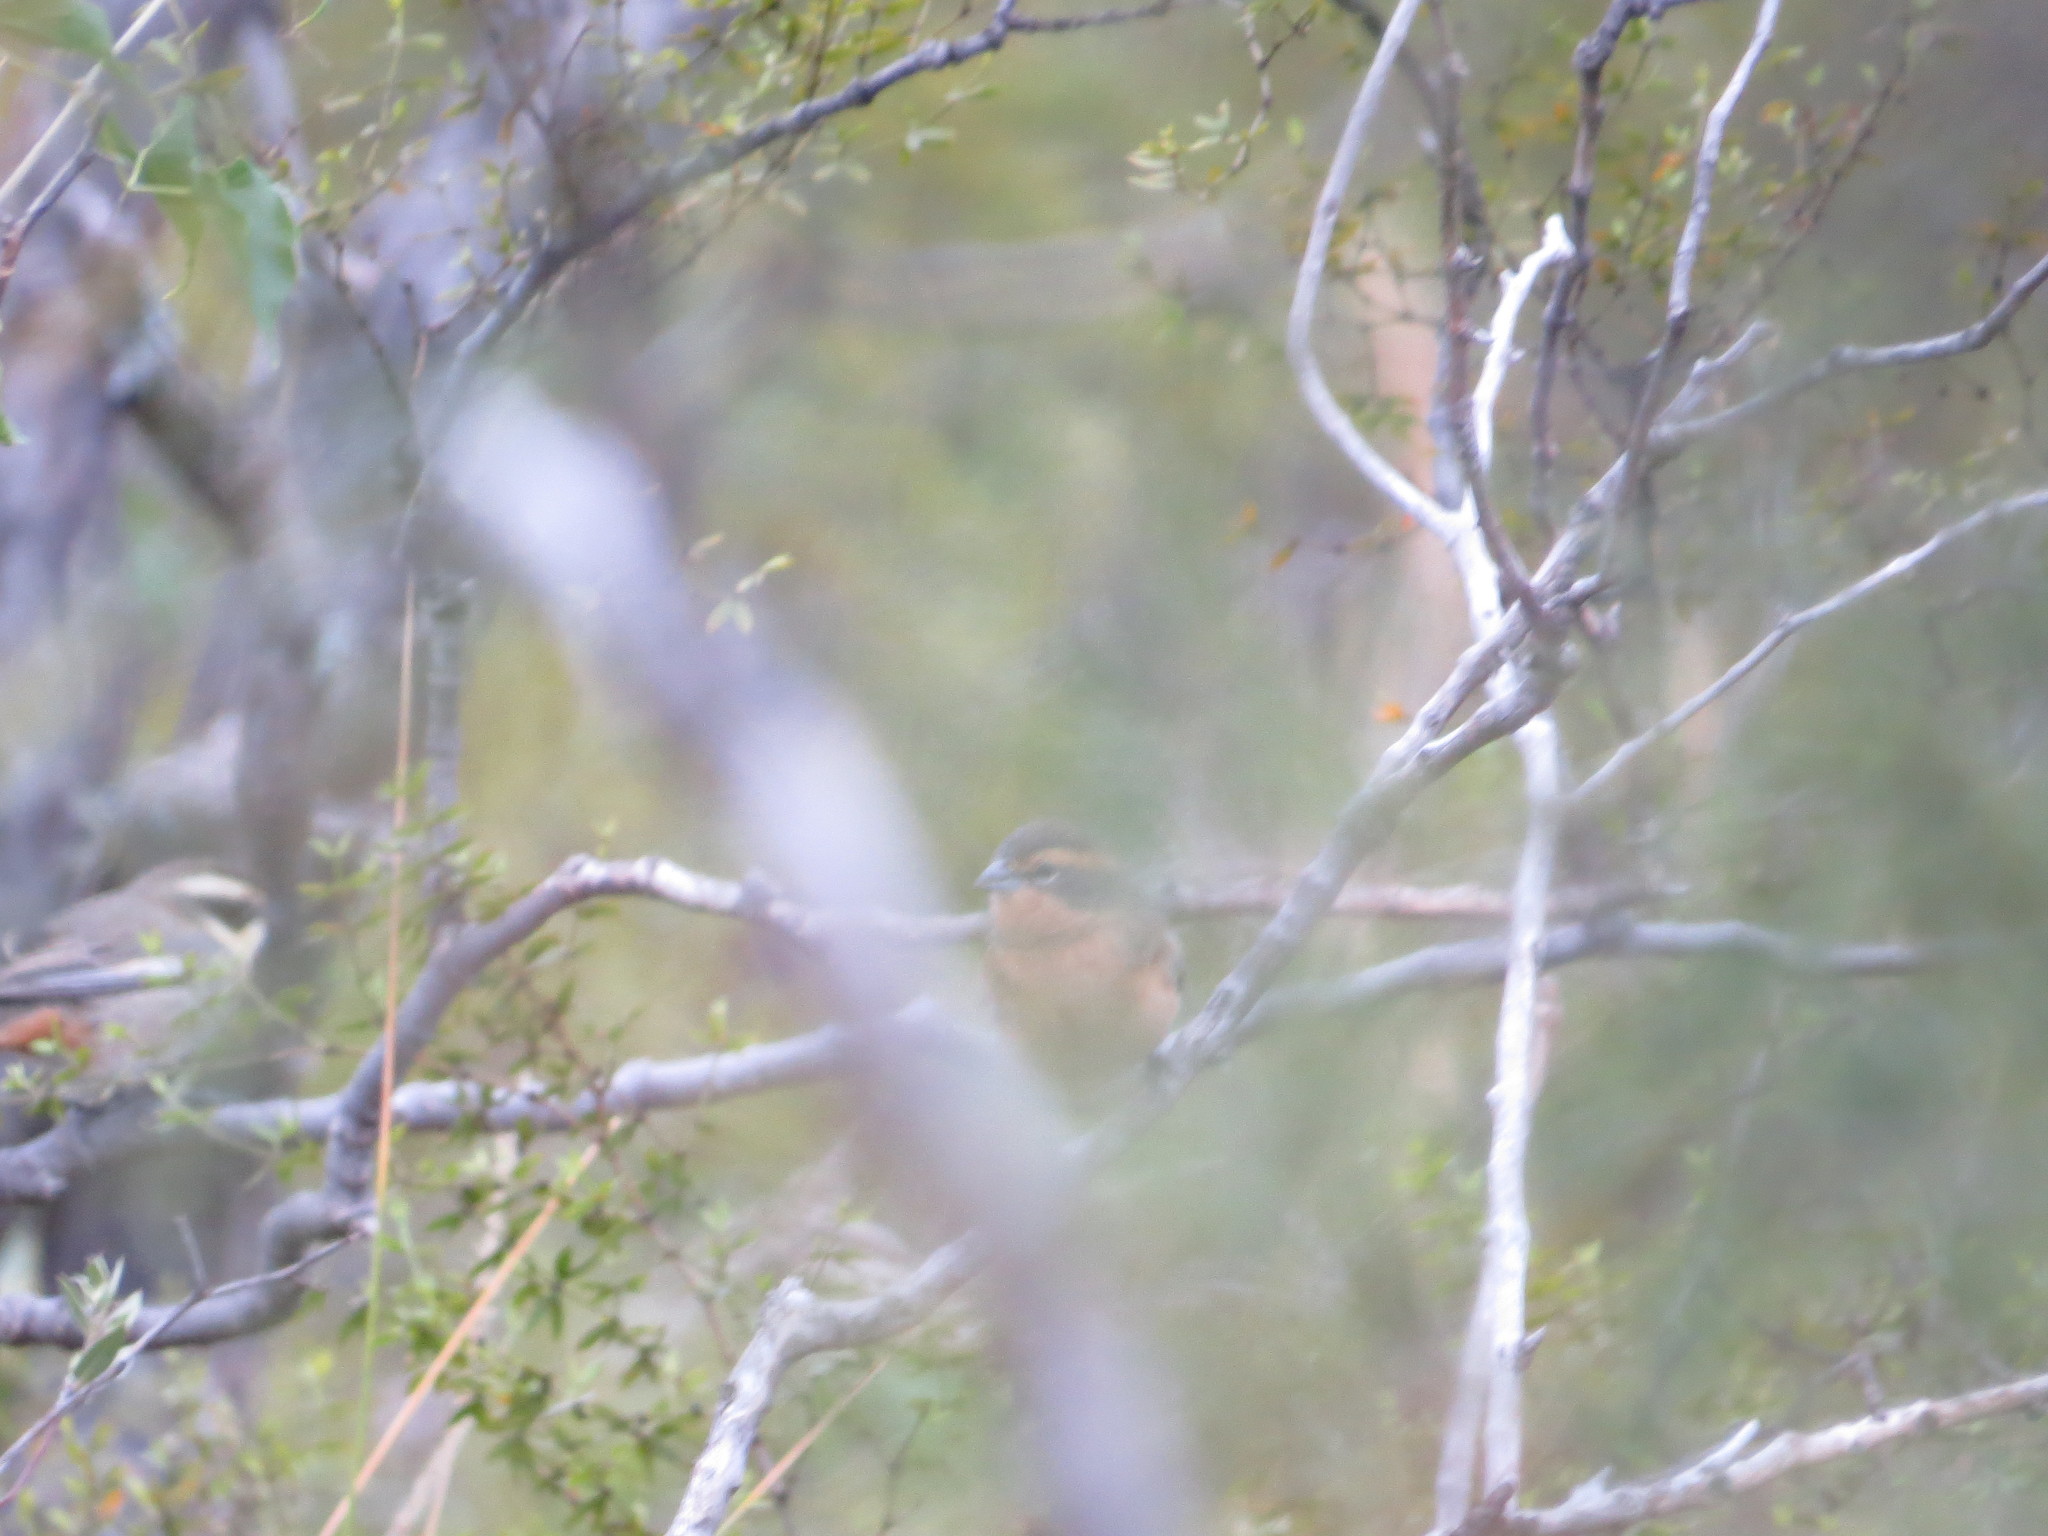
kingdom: Animalia
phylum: Chordata
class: Aves
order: Passeriformes
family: Thraupidae
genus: Poospiza
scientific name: Poospiza ornata
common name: Cinnamon warbling finch
